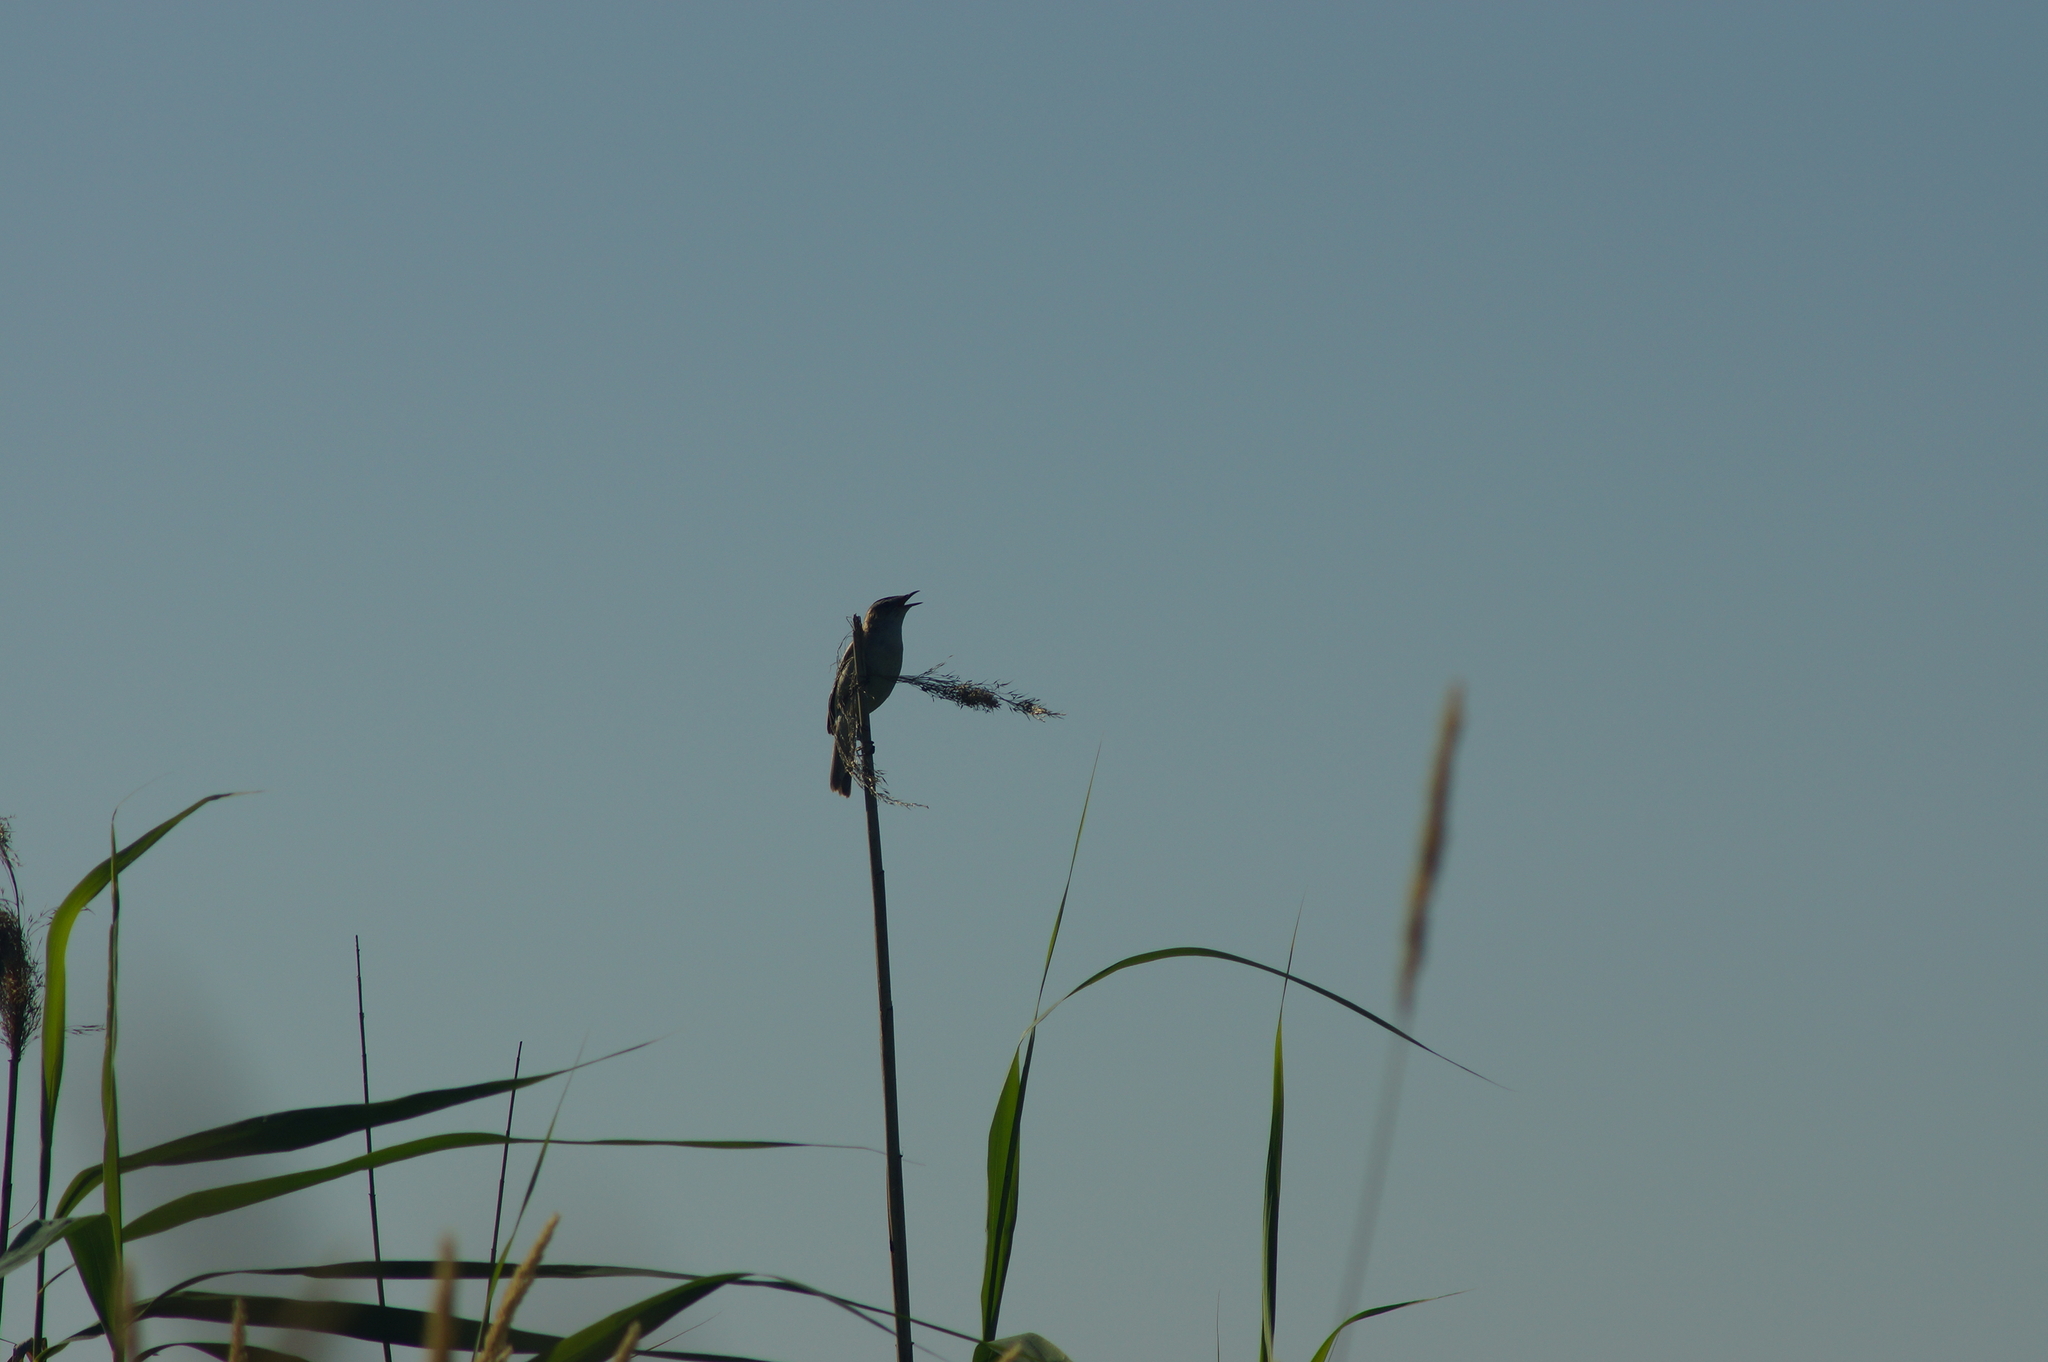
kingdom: Animalia
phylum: Chordata
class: Aves
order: Passeriformes
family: Acrocephalidae
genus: Acrocephalus
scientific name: Acrocephalus schoenobaenus
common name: Sedge warbler
